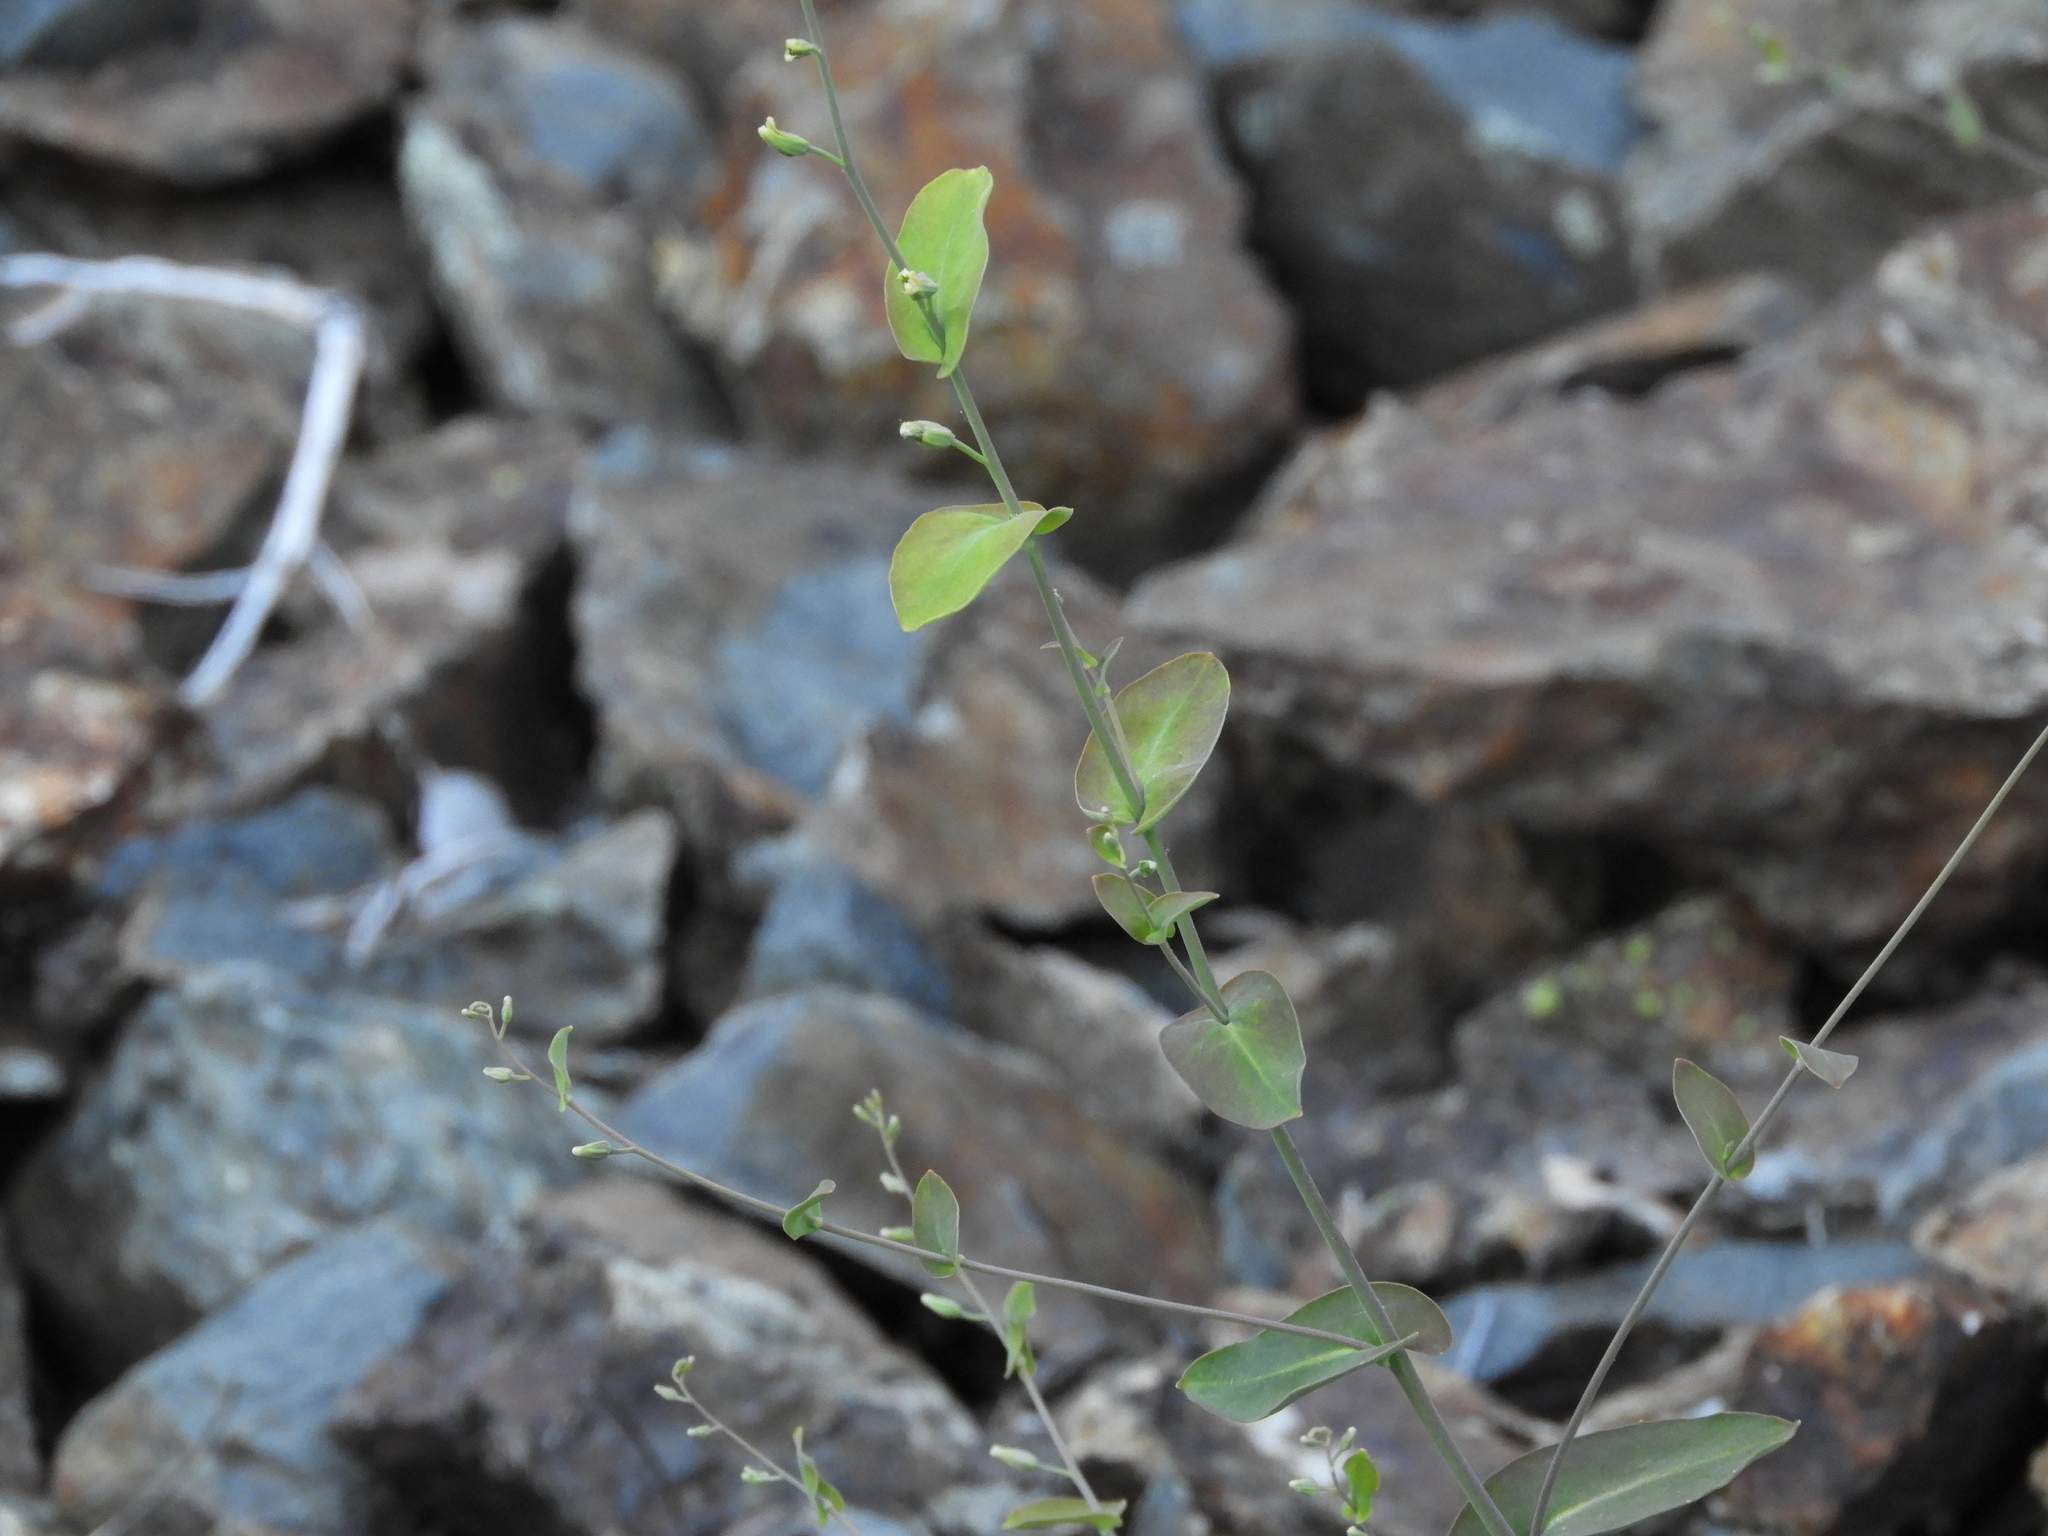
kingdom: Plantae
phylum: Tracheophyta
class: Magnoliopsida
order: Brassicales
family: Brassicaceae
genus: Streptanthus
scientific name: Streptanthus tortuosus
